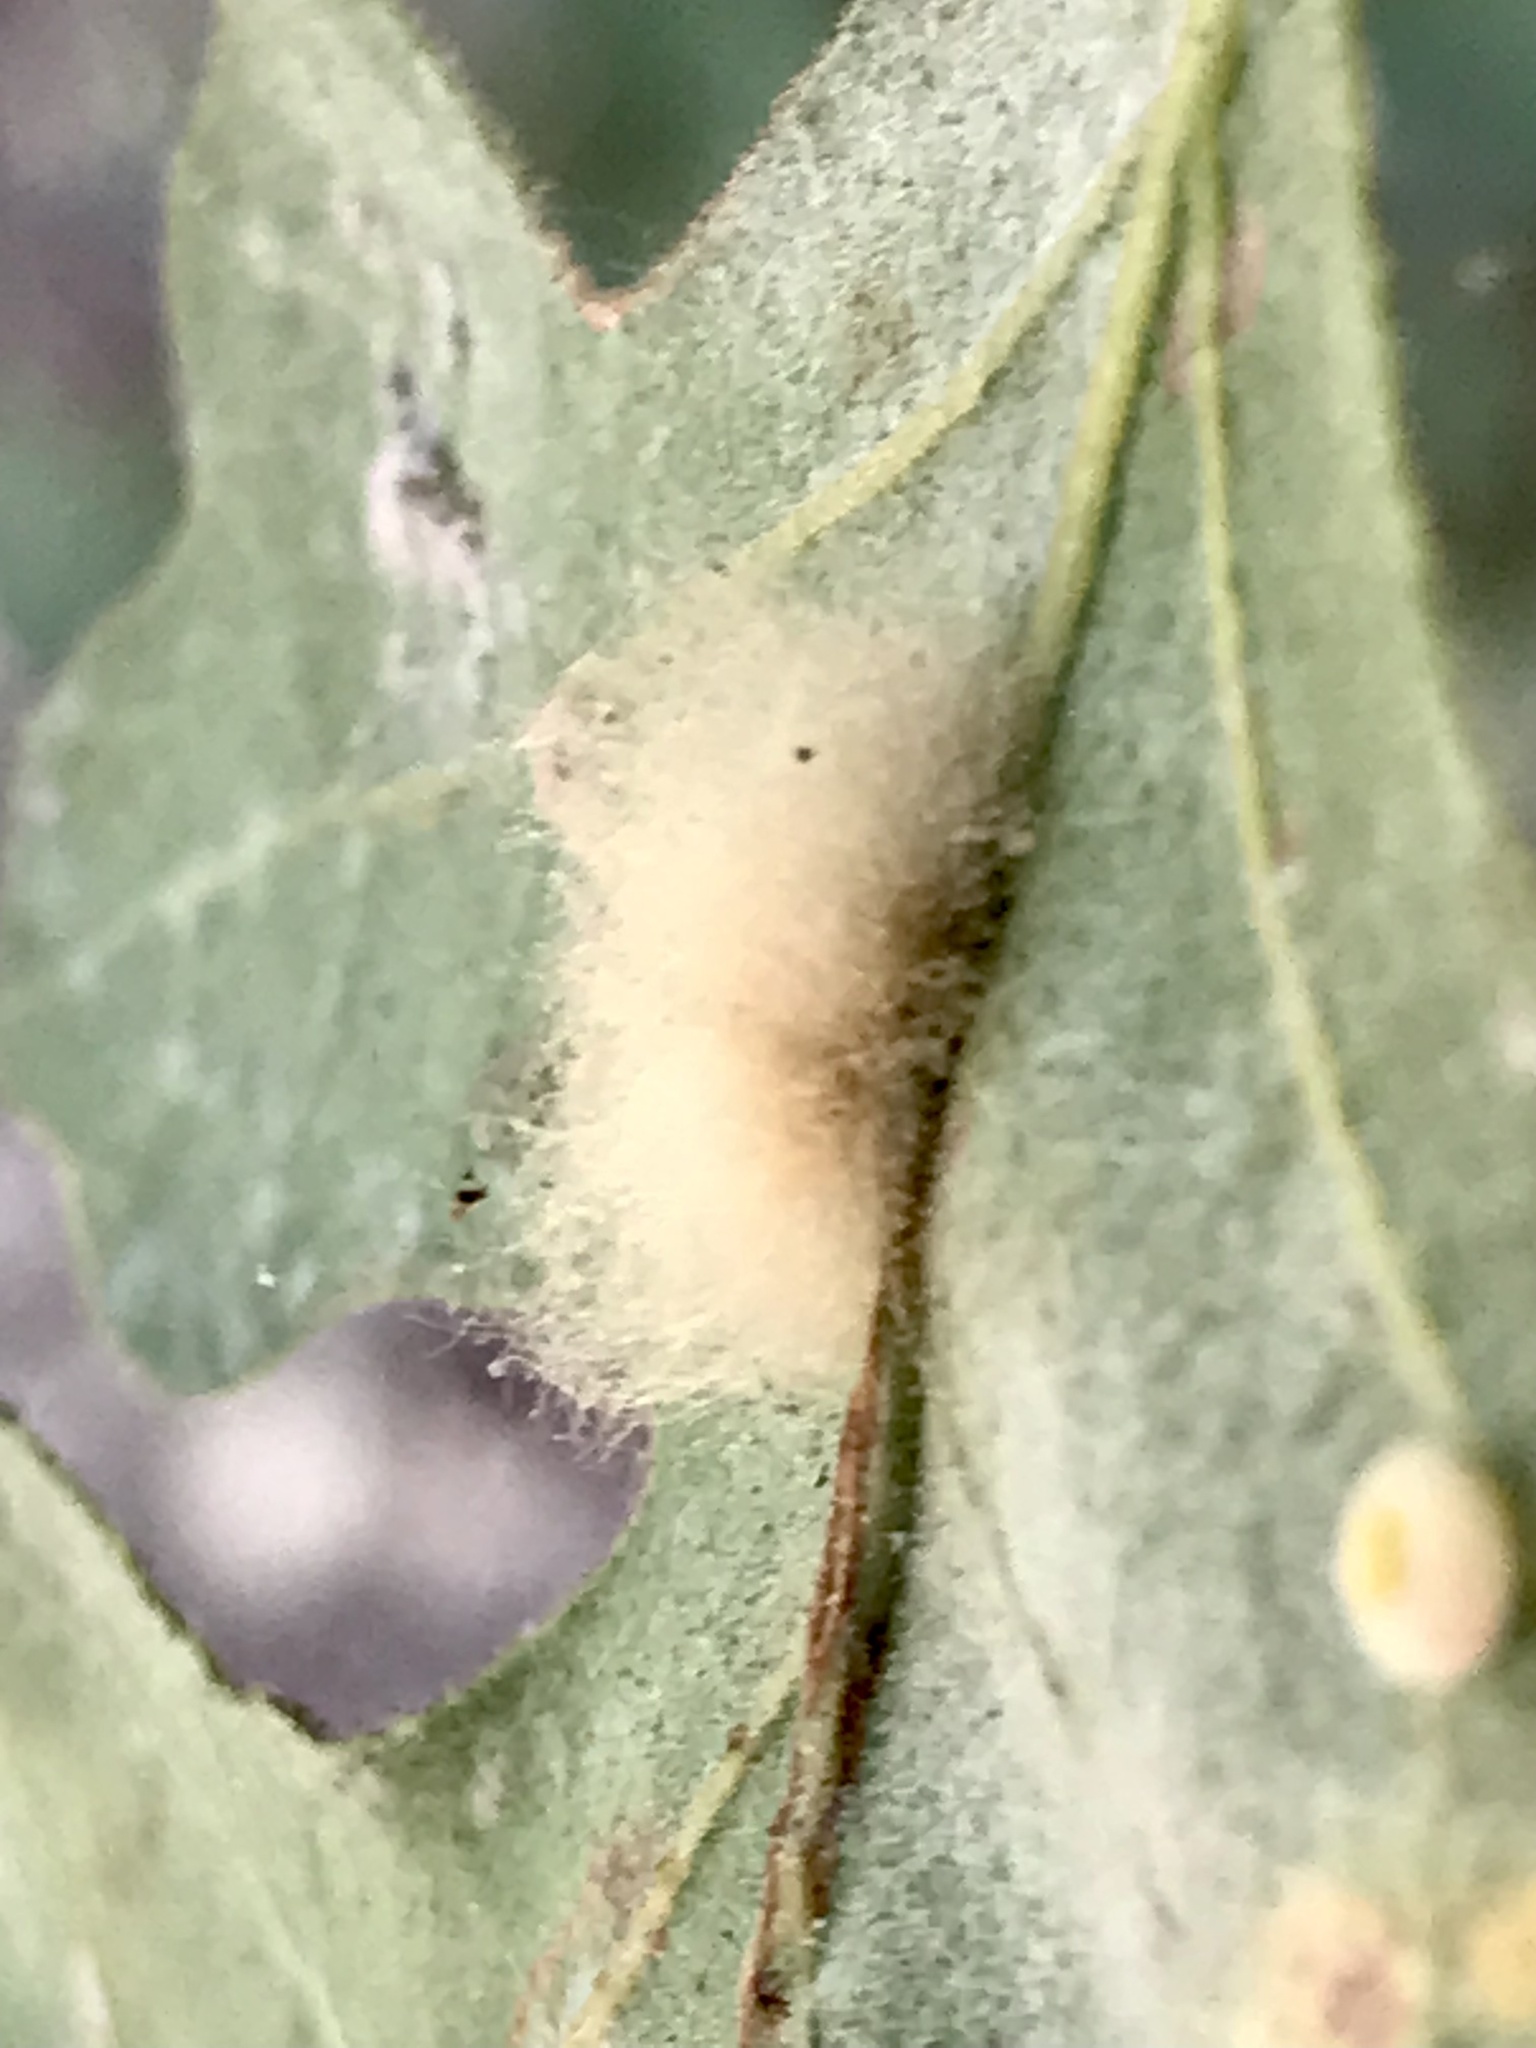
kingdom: Animalia
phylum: Arthropoda
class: Insecta
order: Hymenoptera
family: Cynipidae
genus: Andricus
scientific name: Andricus Druon fullawayi
